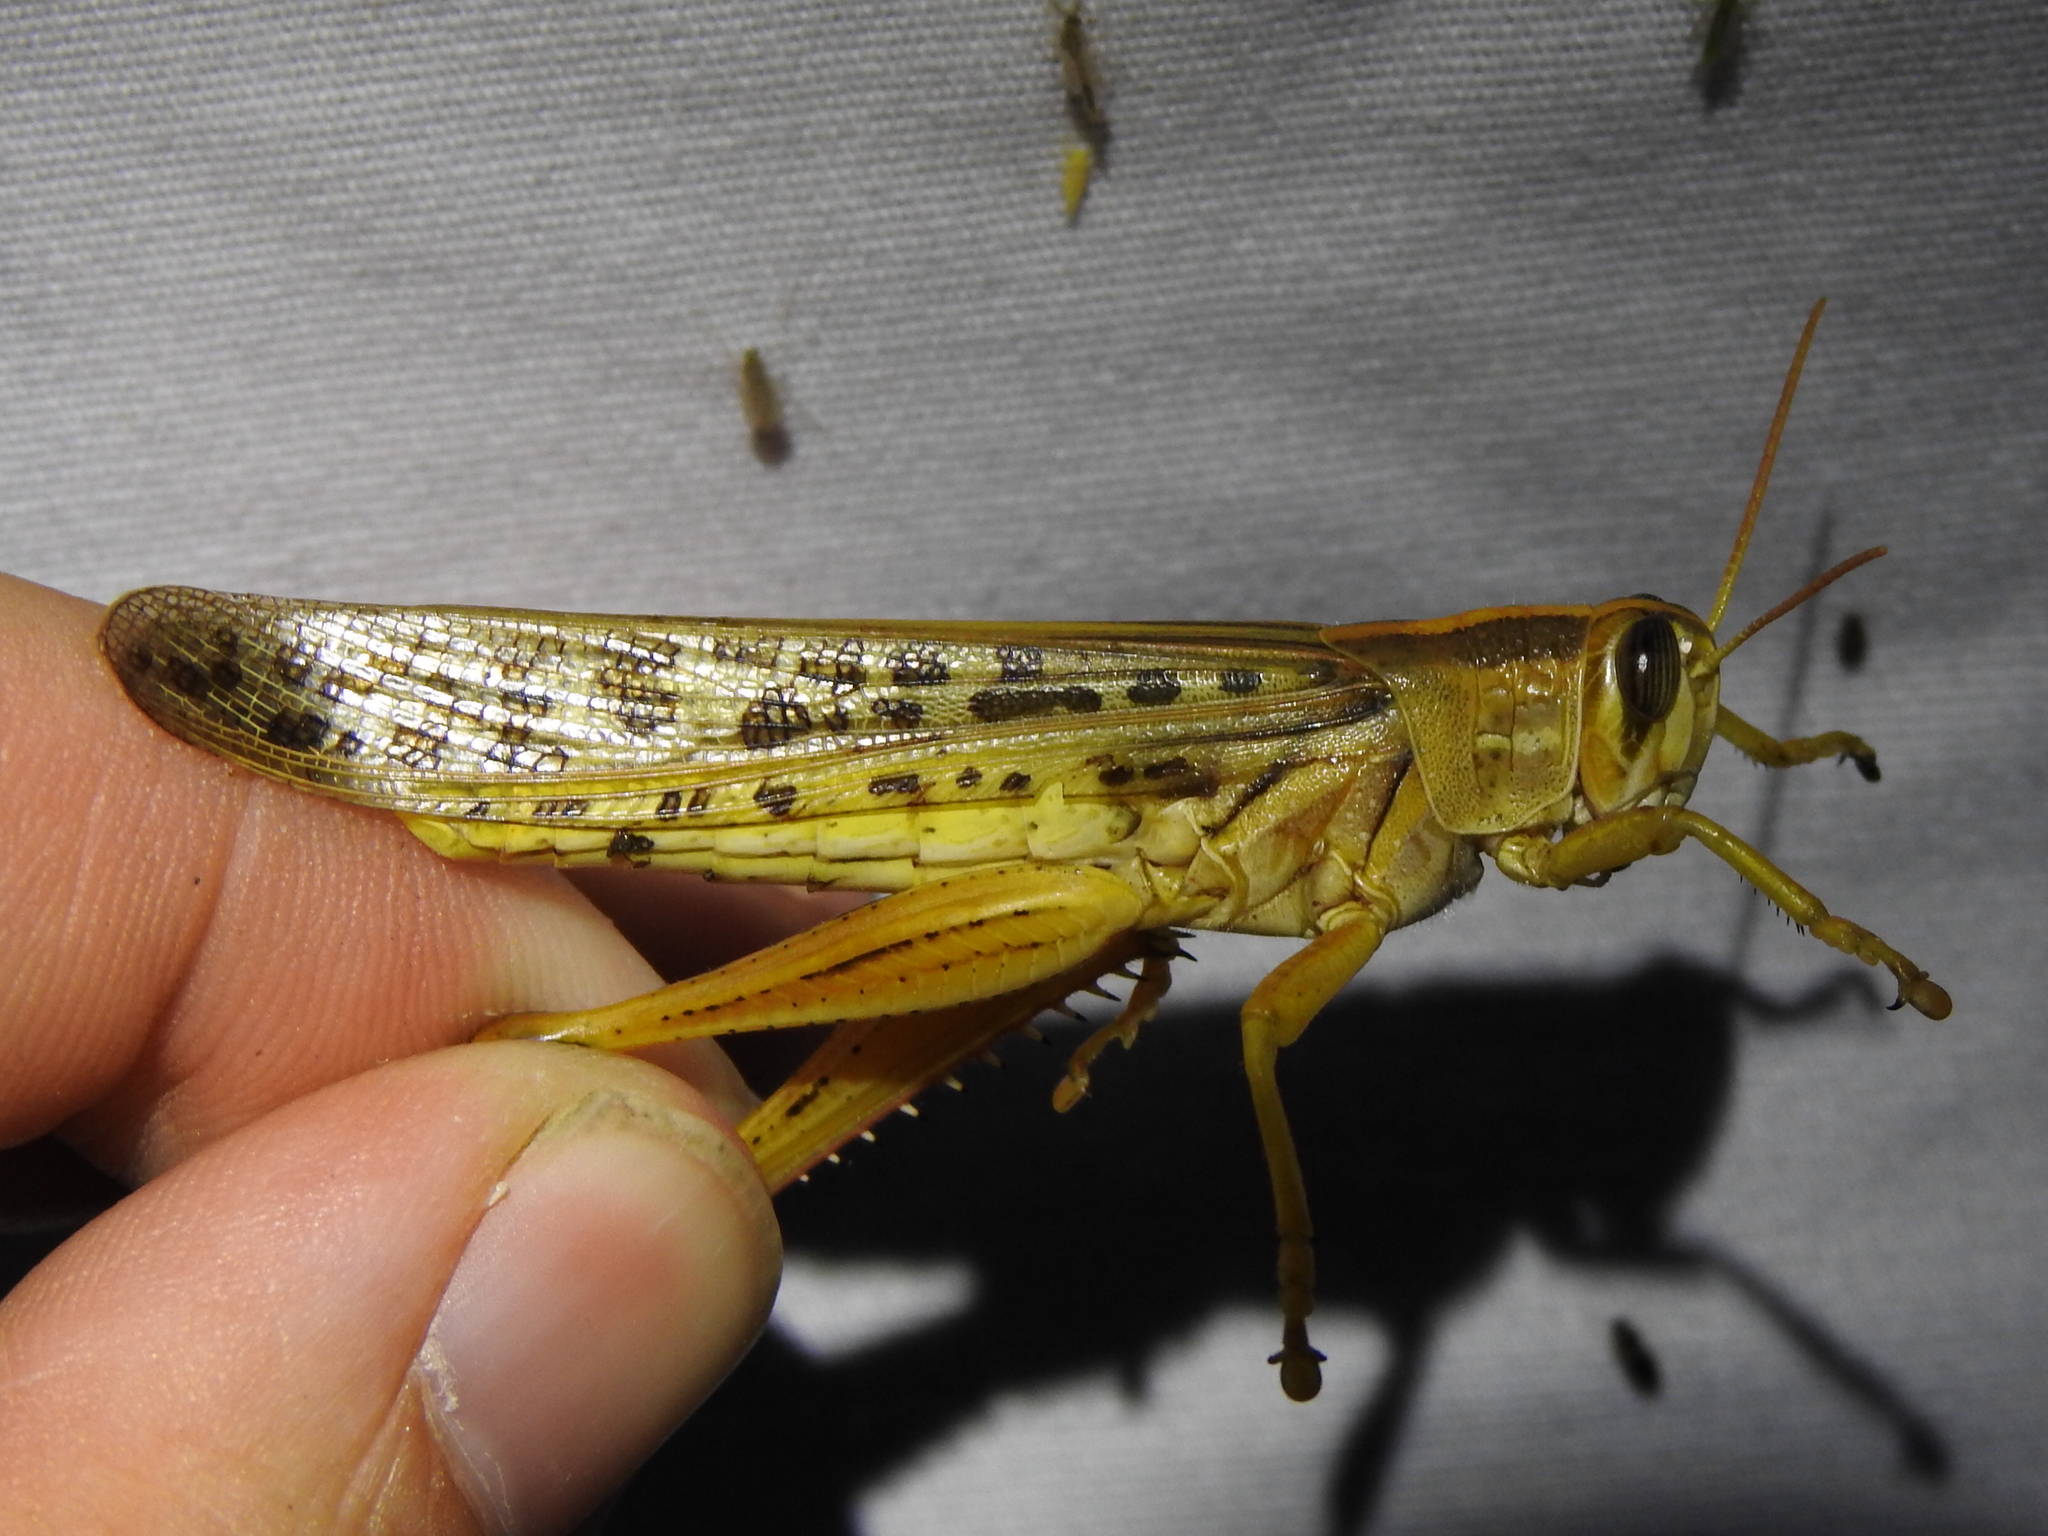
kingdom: Animalia
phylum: Arthropoda
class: Insecta
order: Orthoptera
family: Acrididae
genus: Schistocerca
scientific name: Schistocerca americana
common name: American bird locust
